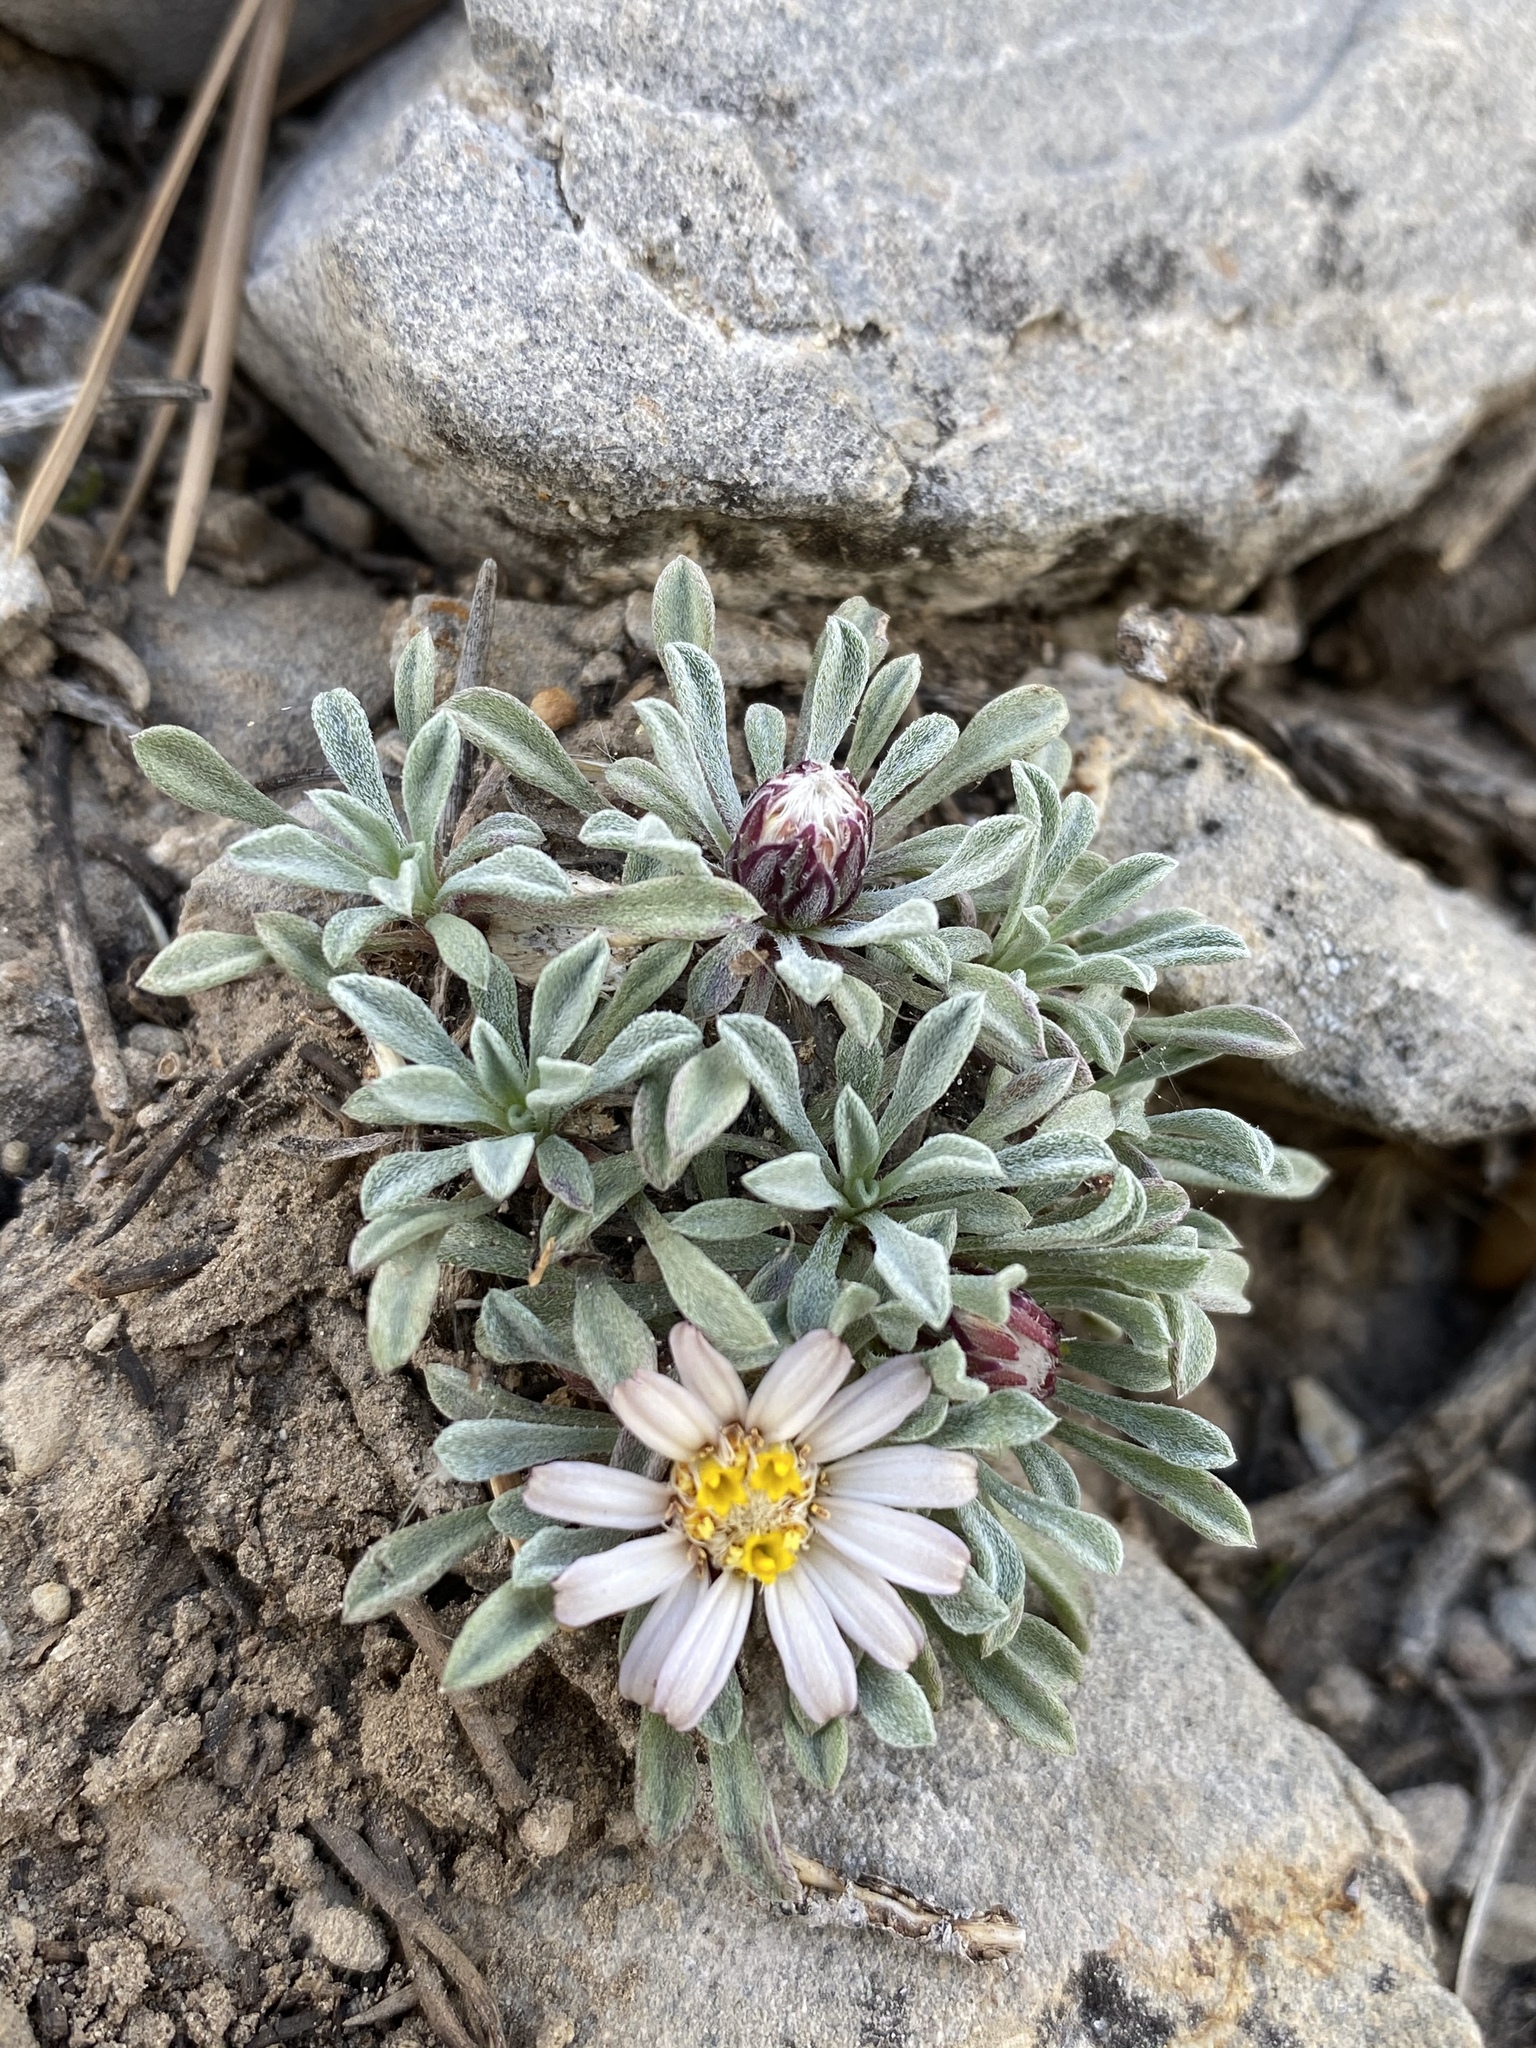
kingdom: Plantae
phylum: Tracheophyta
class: Magnoliopsida
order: Asterales
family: Asteraceae
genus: Townsendia
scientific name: Townsendia jonesii
